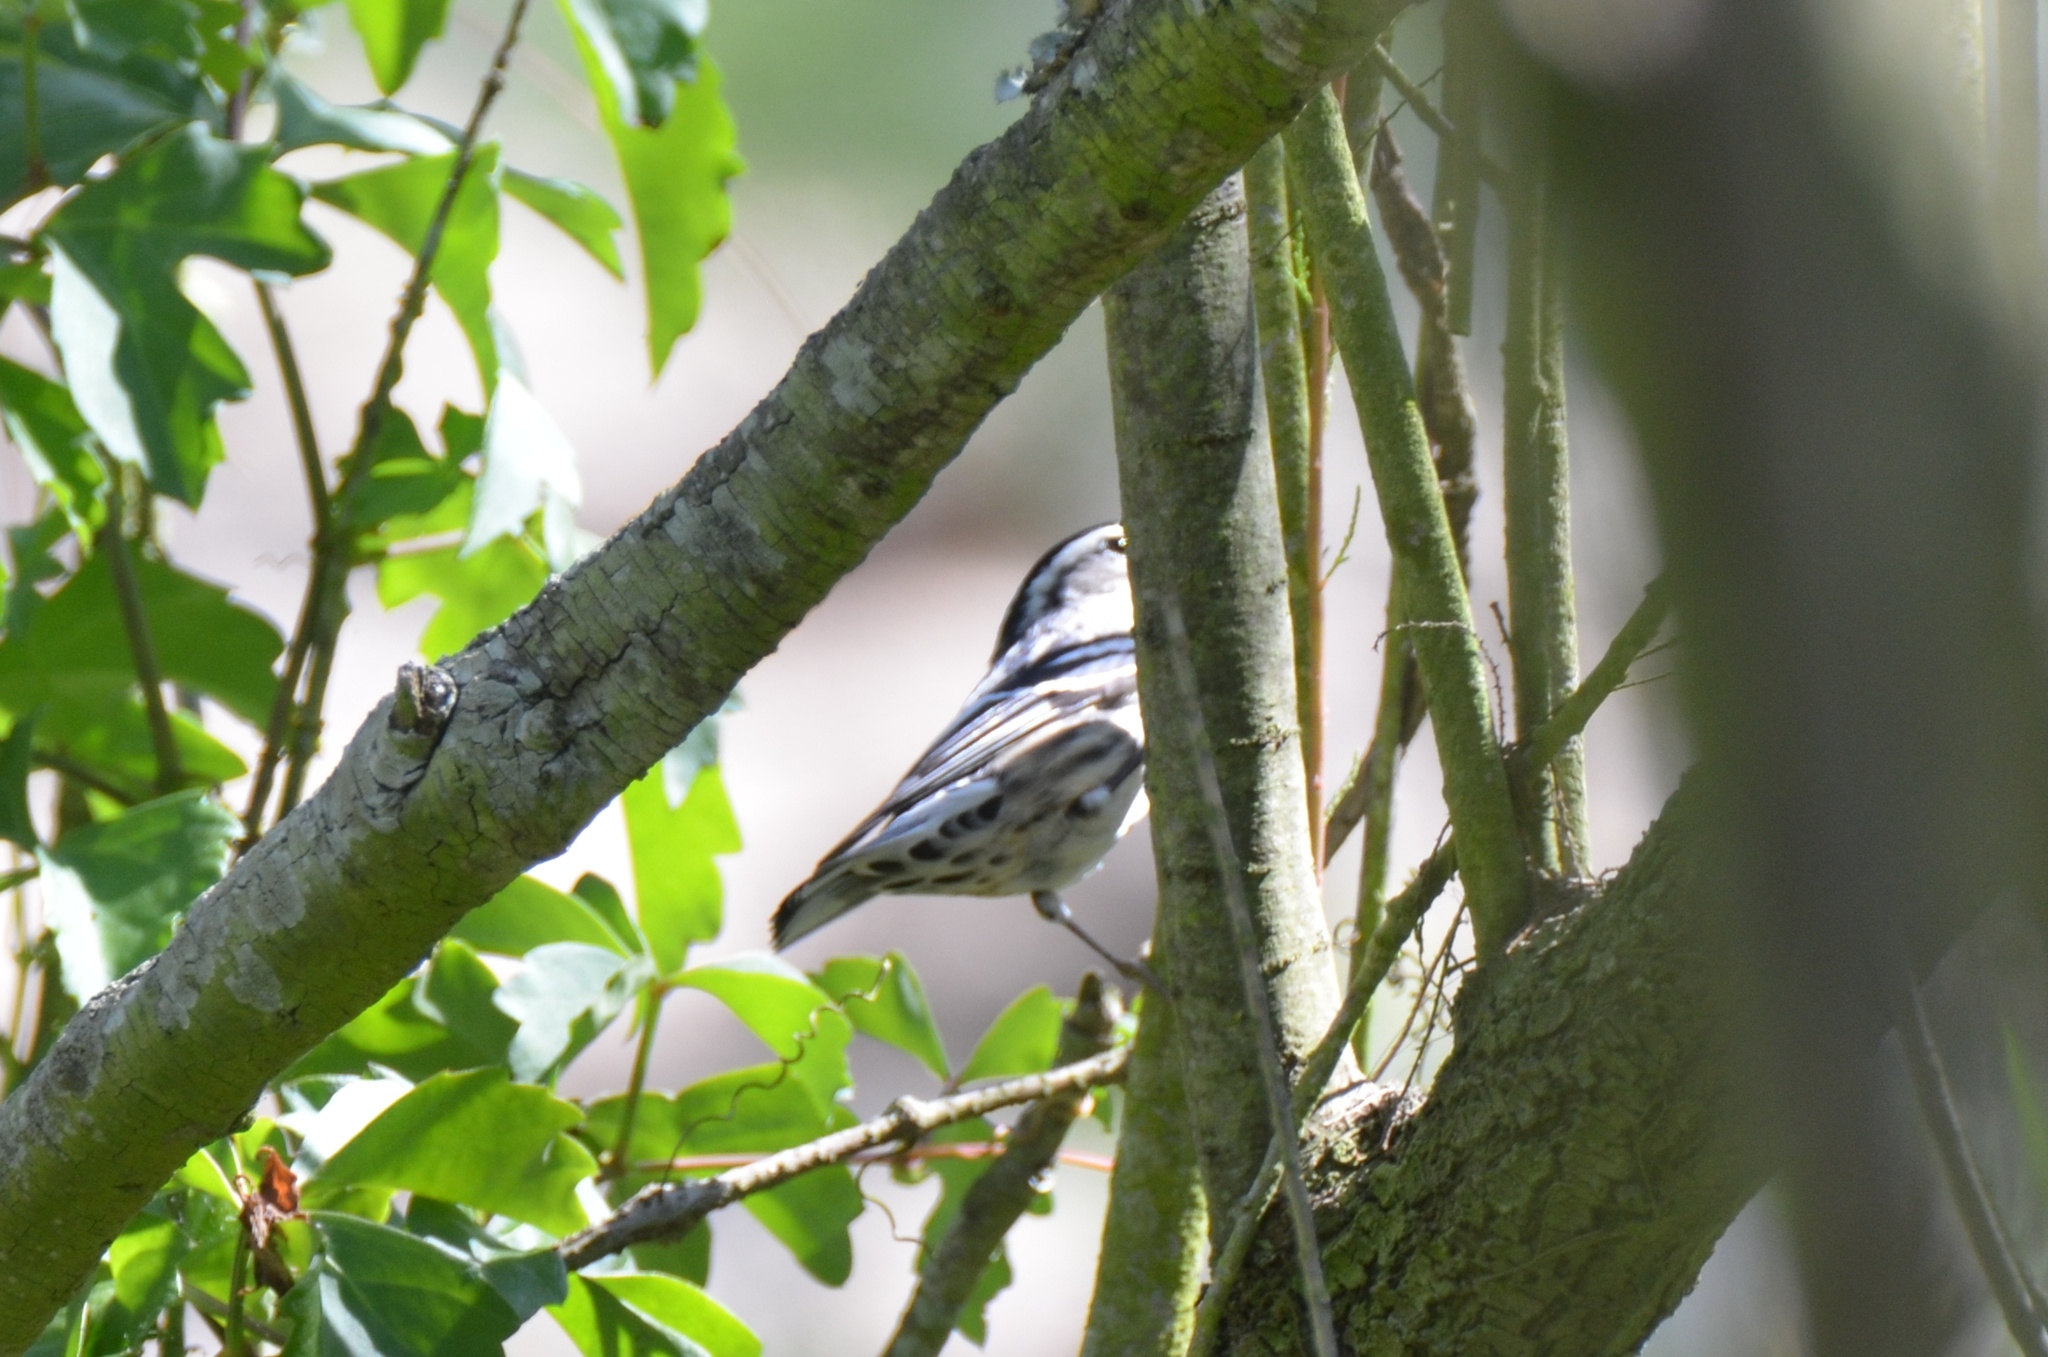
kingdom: Animalia
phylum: Chordata
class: Aves
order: Passeriformes
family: Parulidae
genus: Mniotilta
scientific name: Mniotilta varia
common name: Black-and-white warbler
